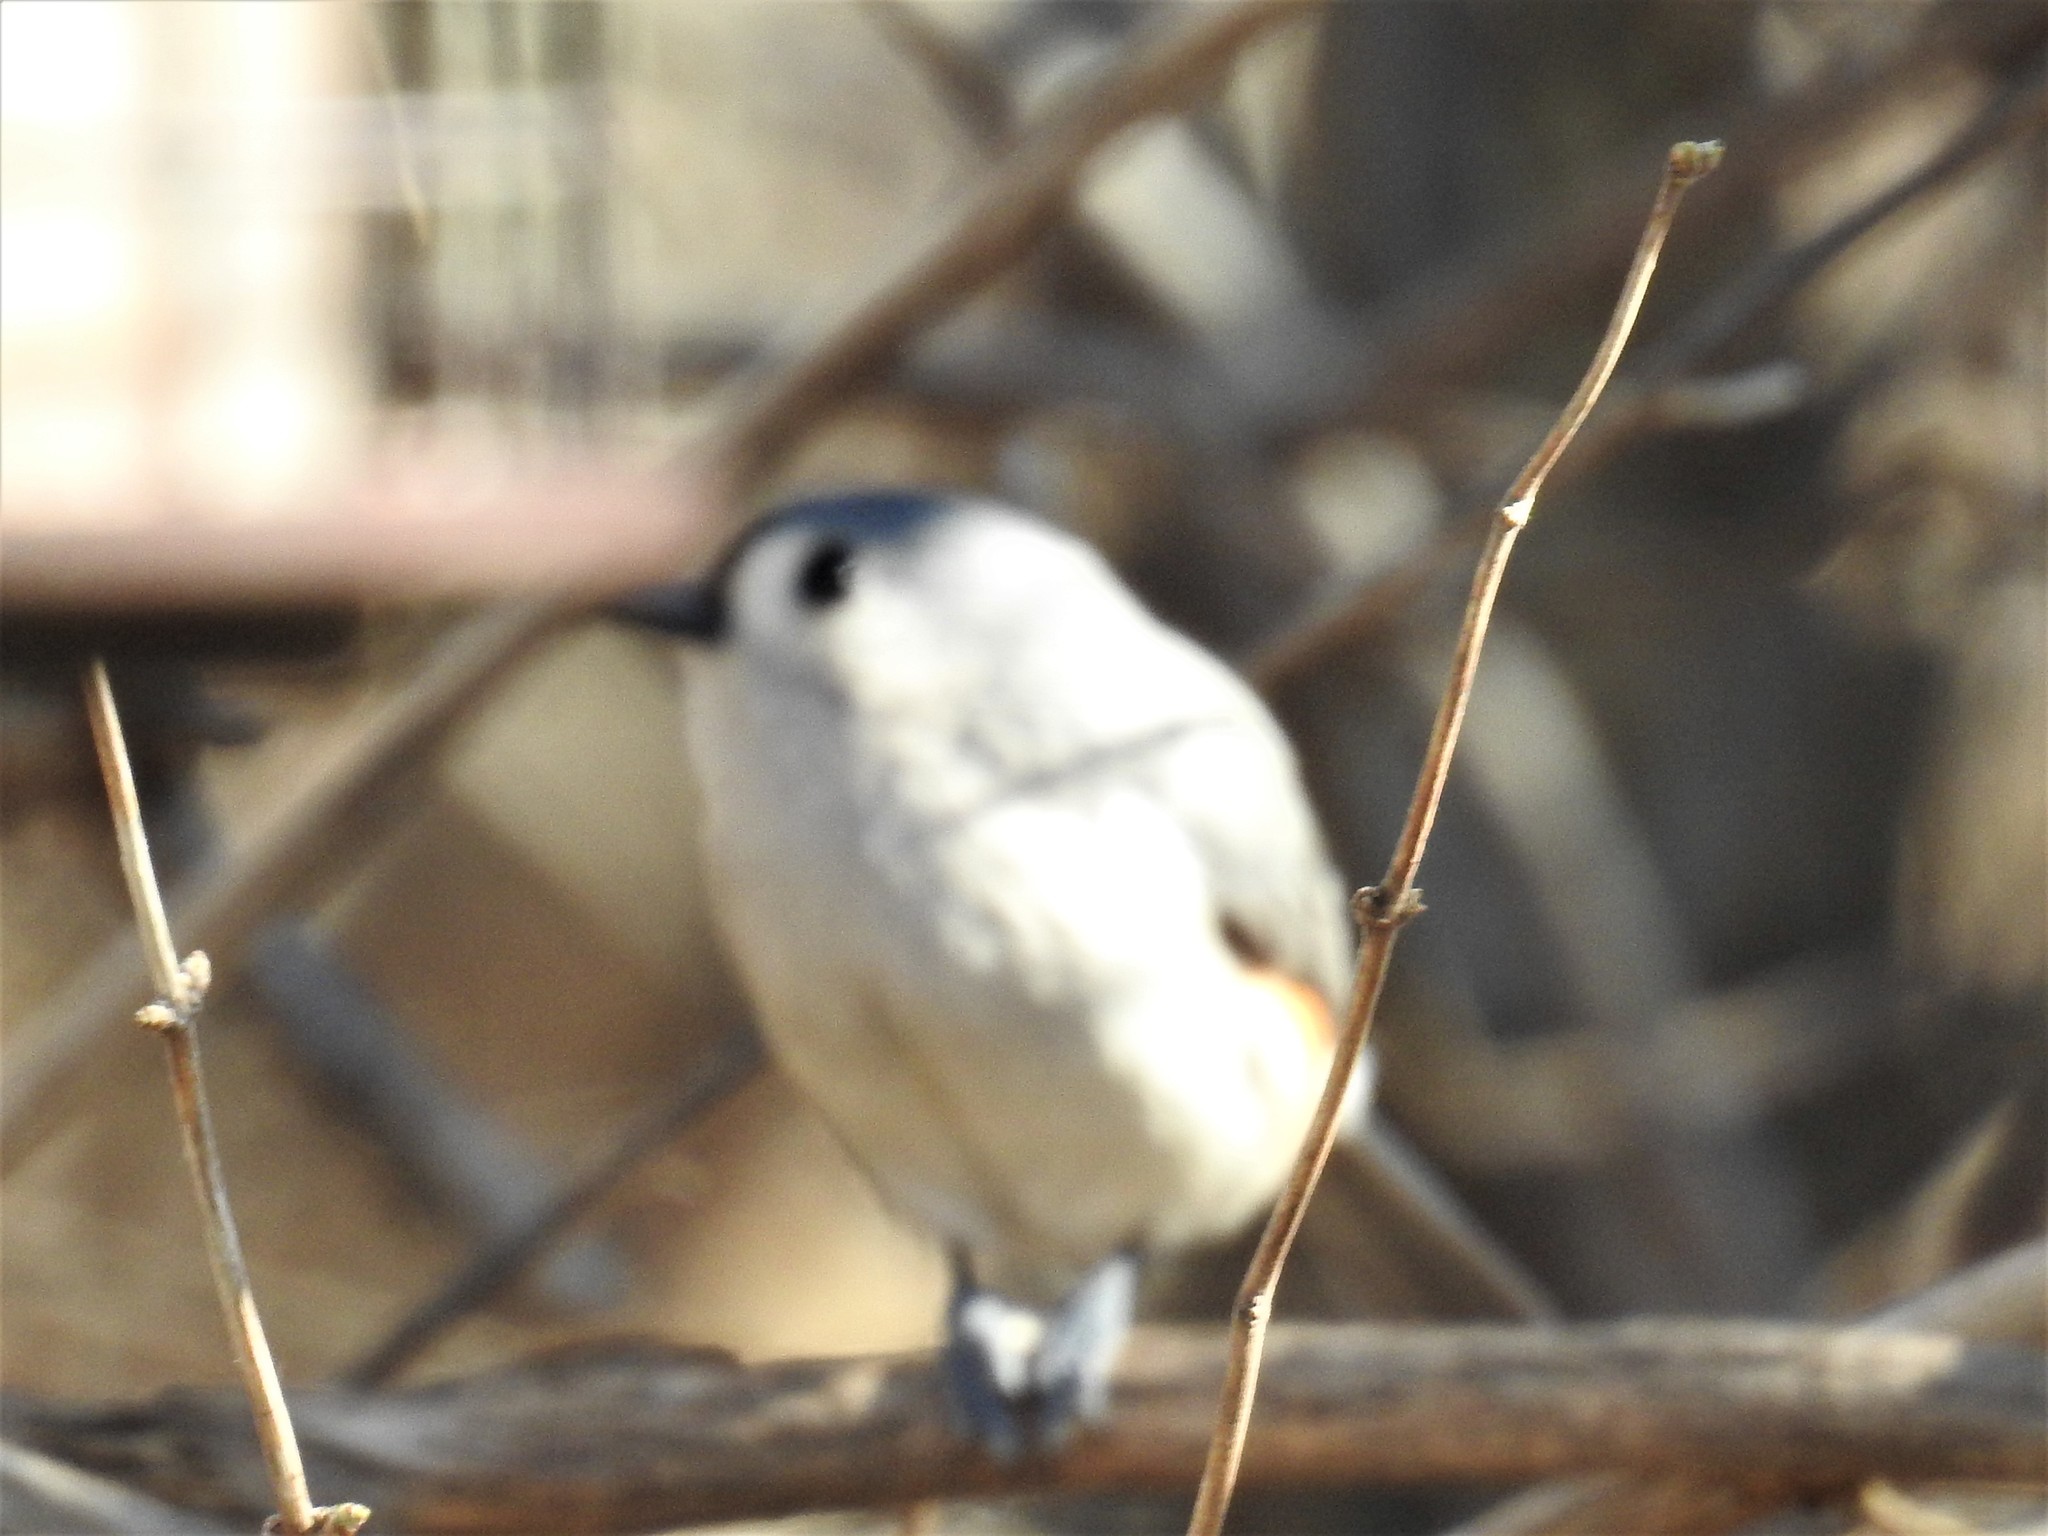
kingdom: Animalia
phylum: Chordata
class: Aves
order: Passeriformes
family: Paridae
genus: Baeolophus
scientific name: Baeolophus bicolor
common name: Tufted titmouse
